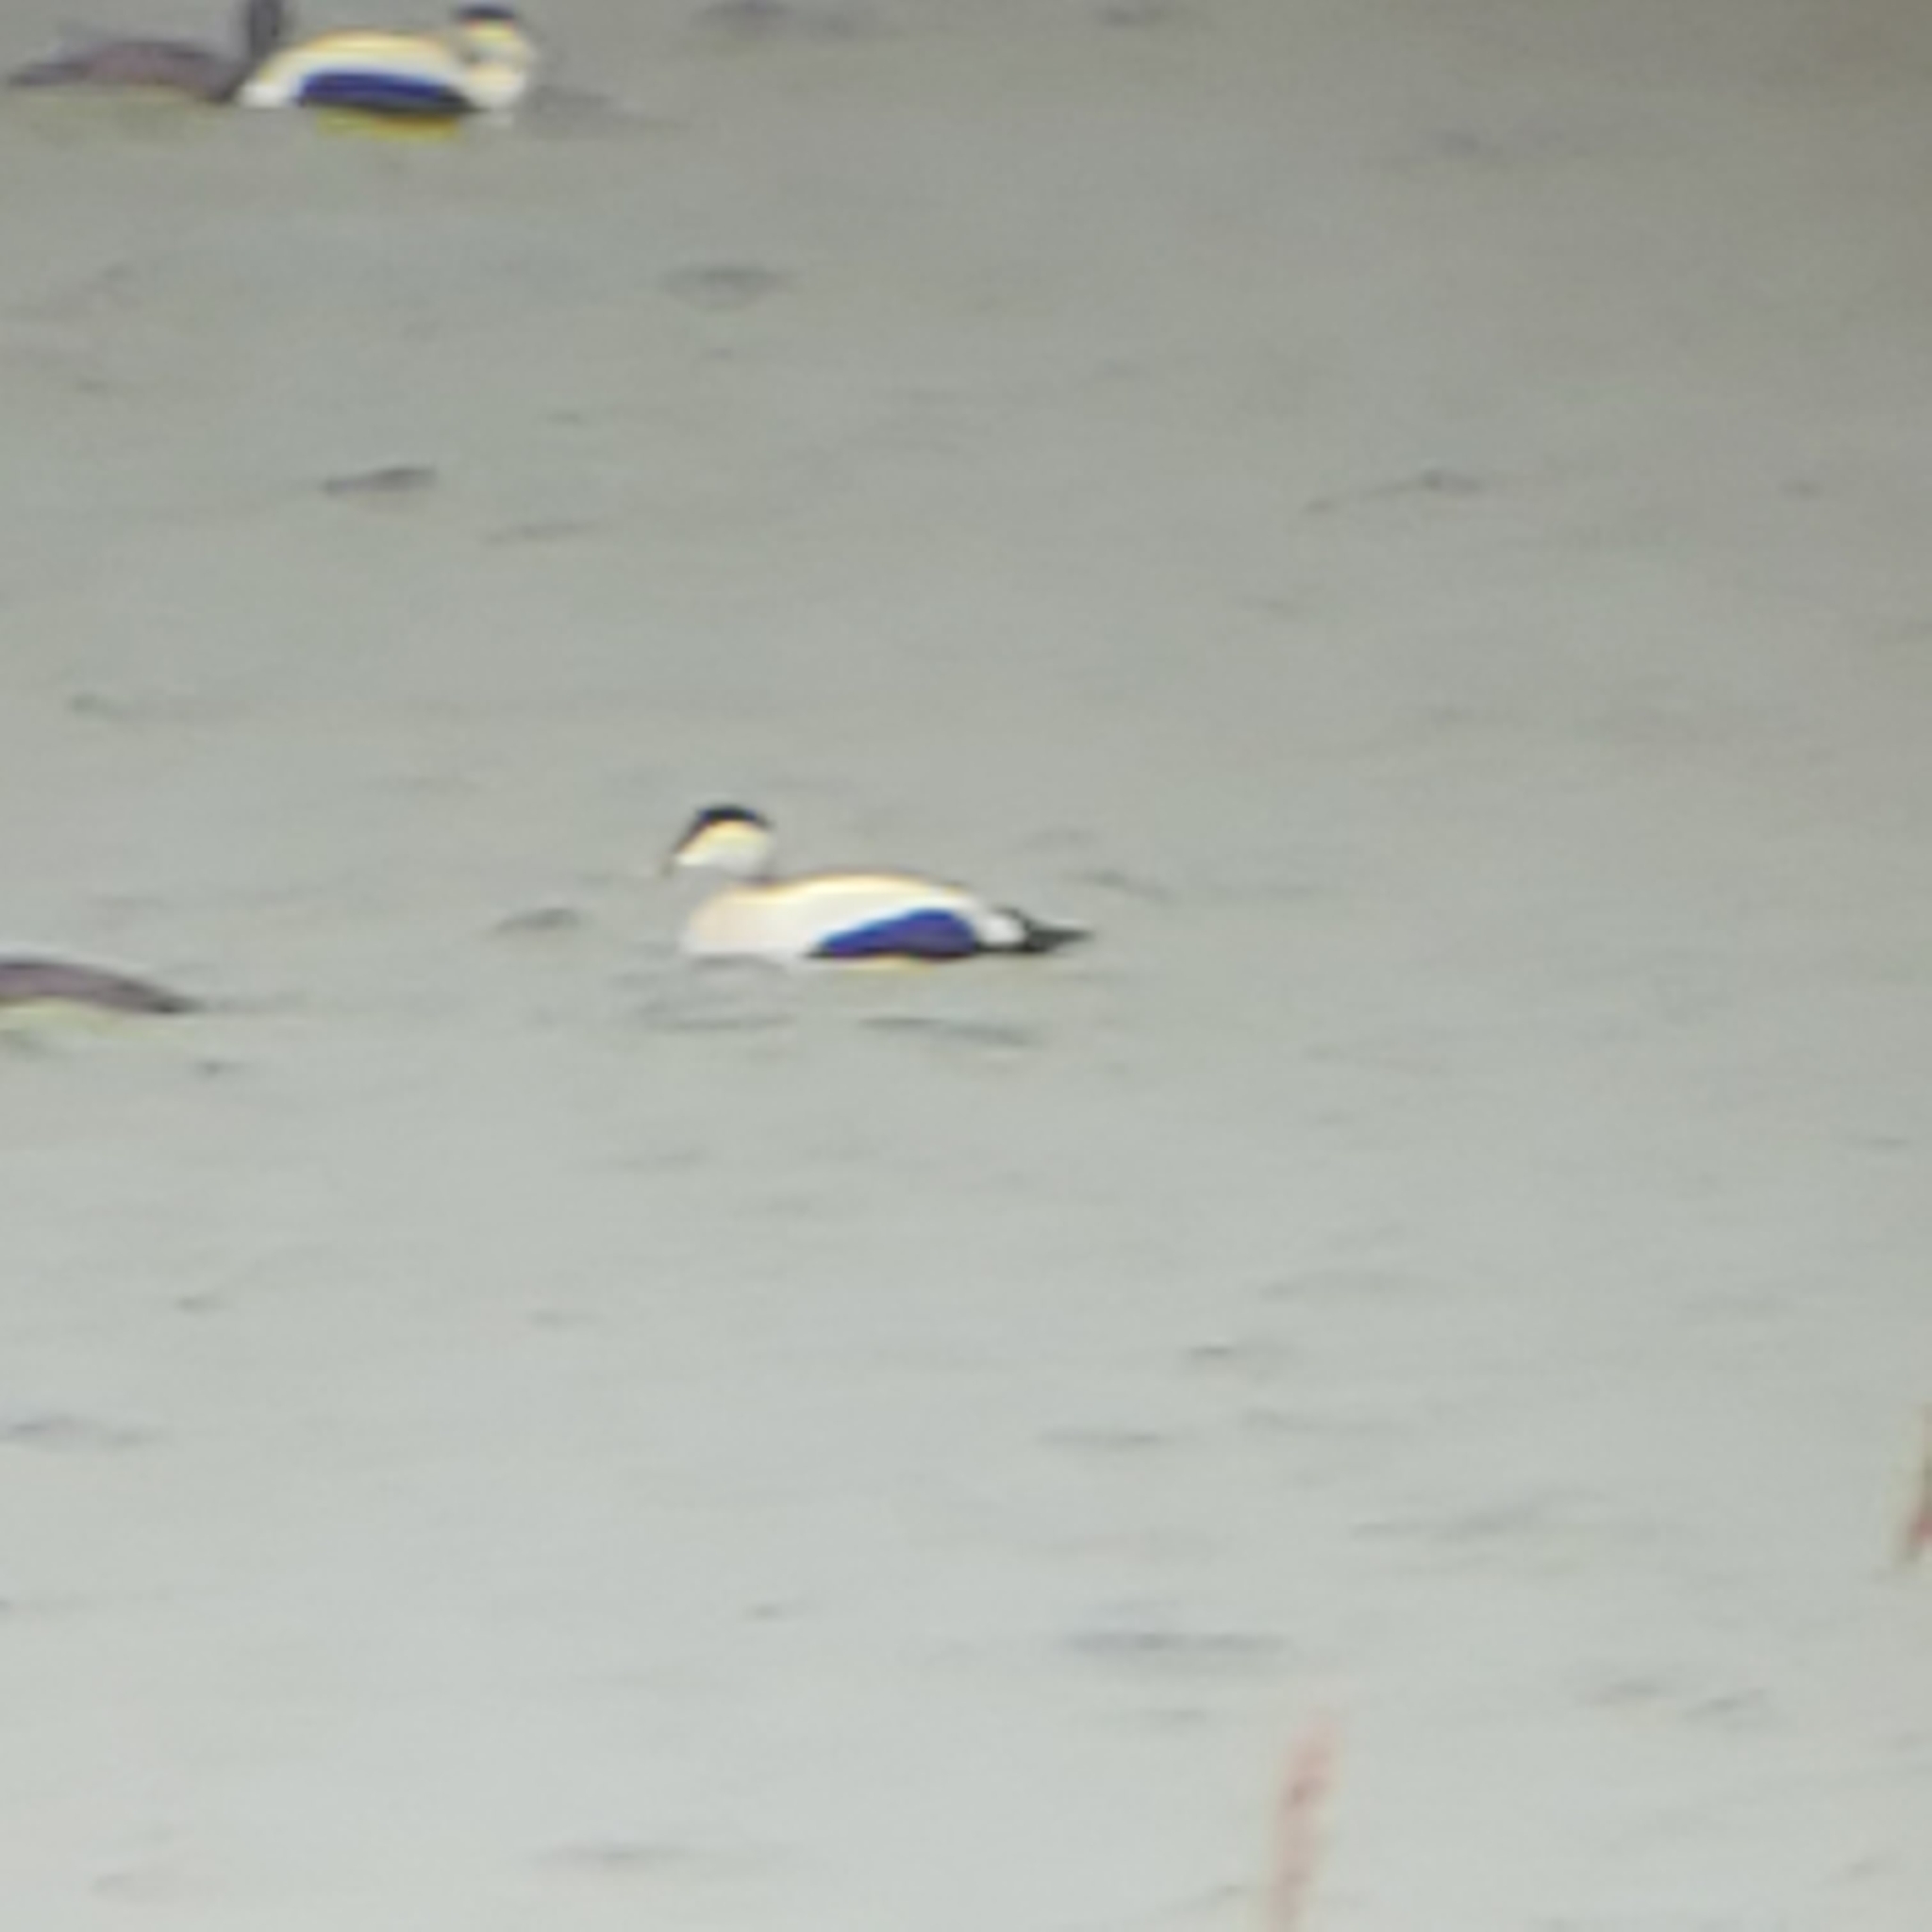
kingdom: Animalia
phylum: Chordata
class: Aves
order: Anseriformes
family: Anatidae
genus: Somateria
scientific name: Somateria mollissima
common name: Common eider
